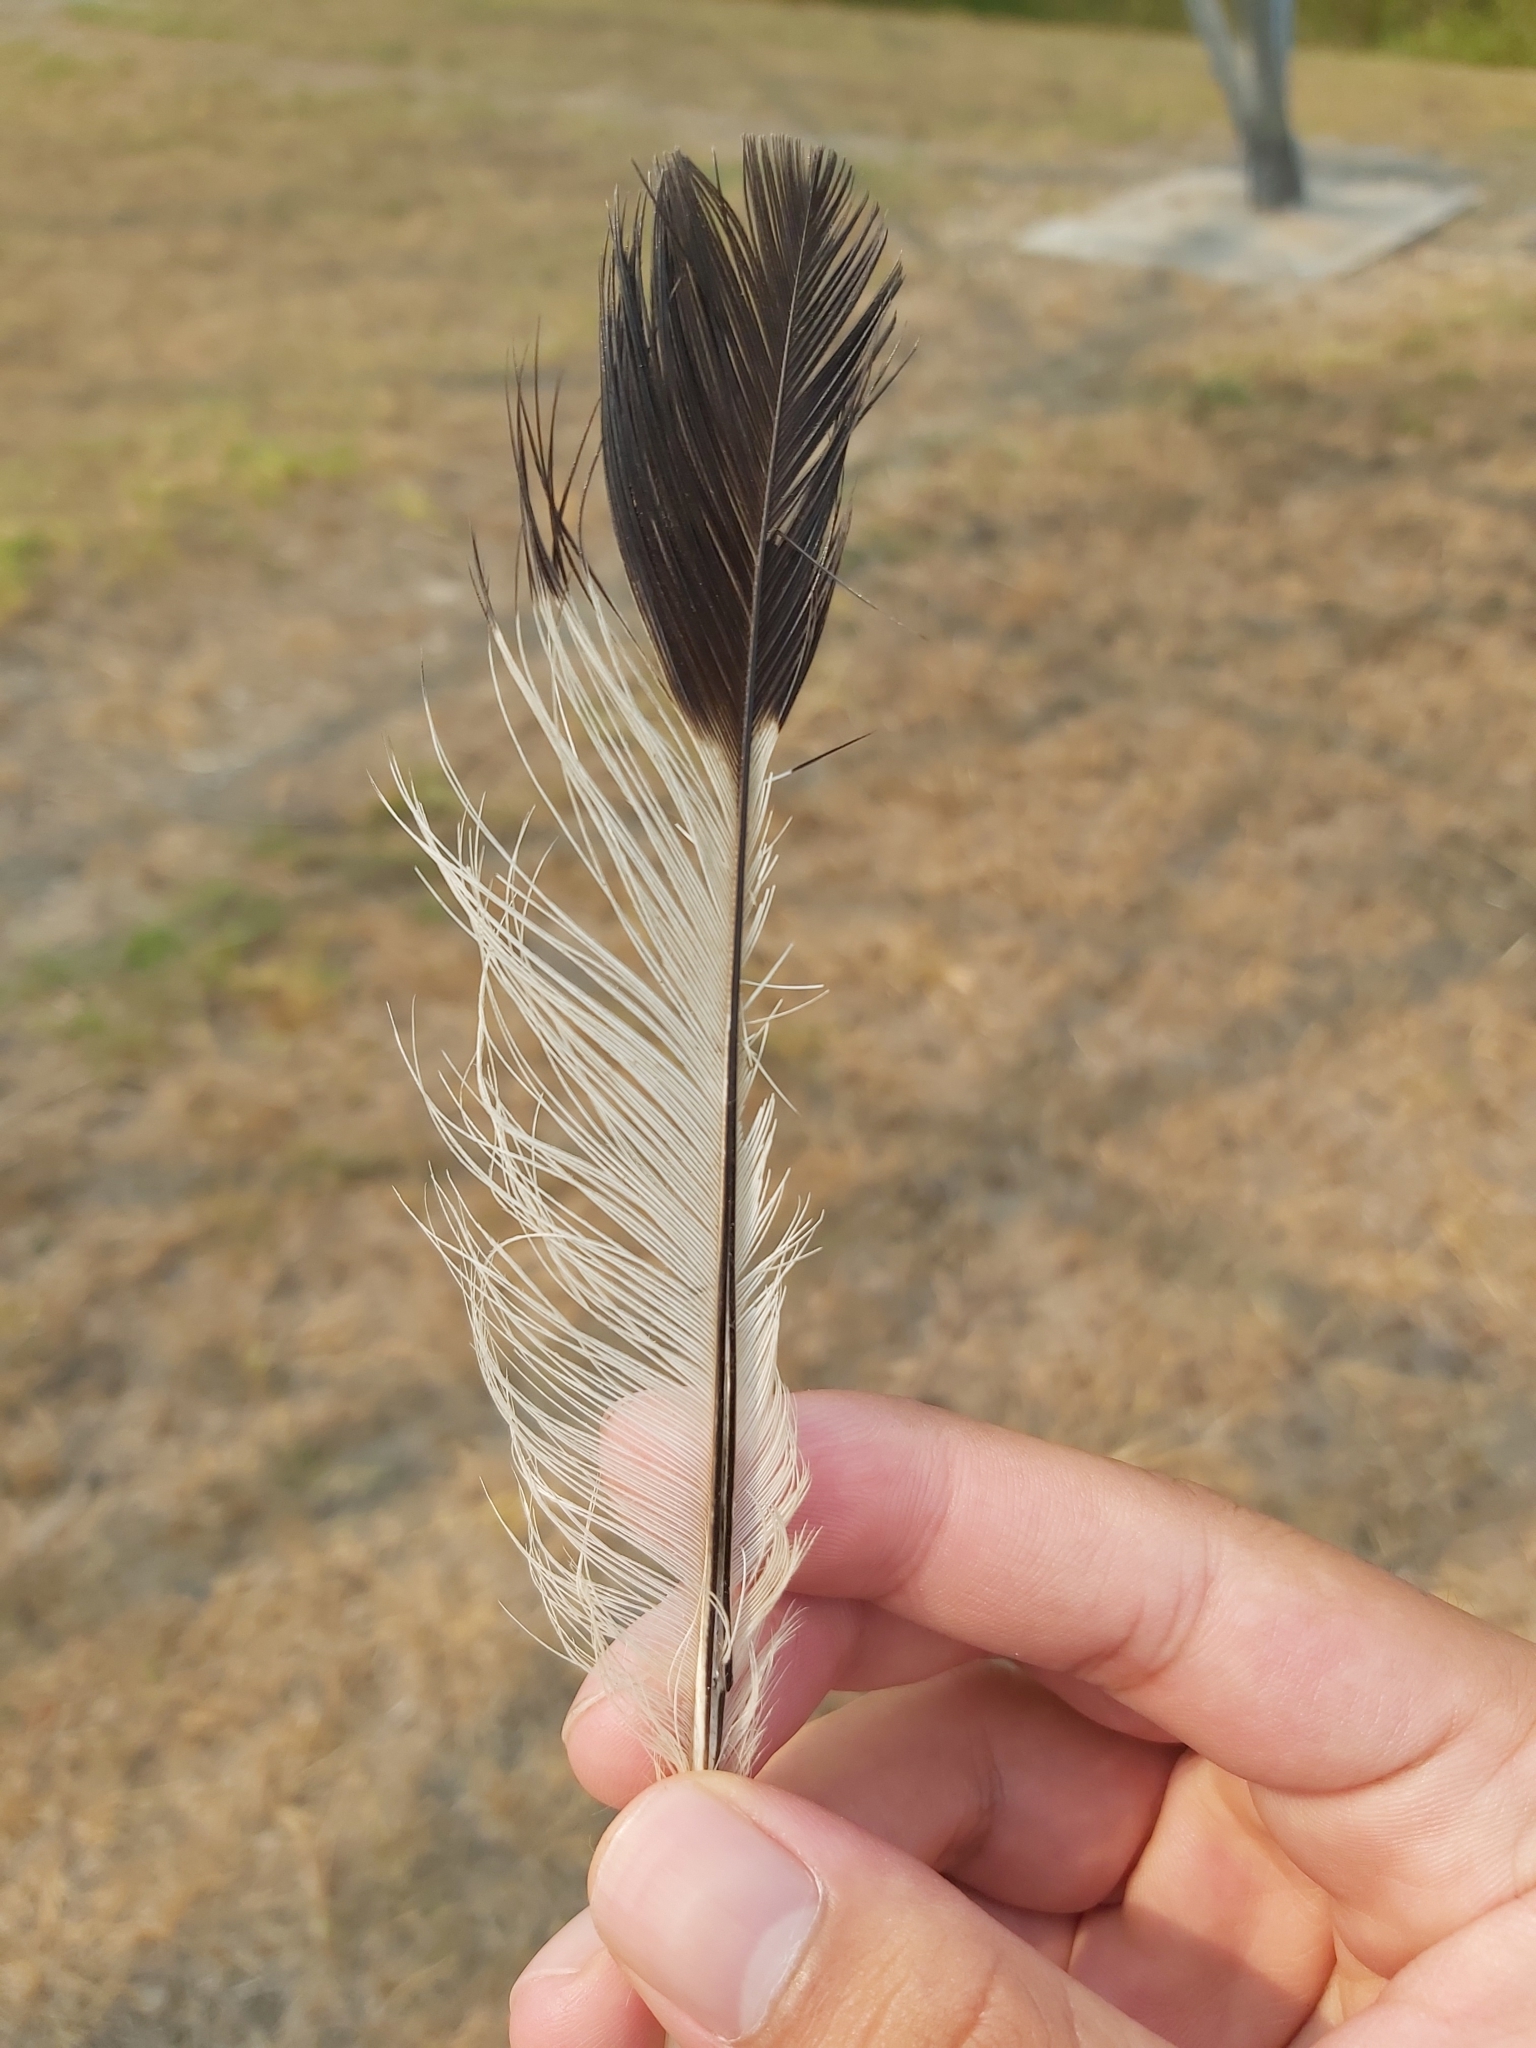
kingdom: Animalia
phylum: Chordata
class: Aves
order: Passeriformes
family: Cracticidae
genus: Gymnorhina
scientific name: Gymnorhina tibicen
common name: Australian magpie
